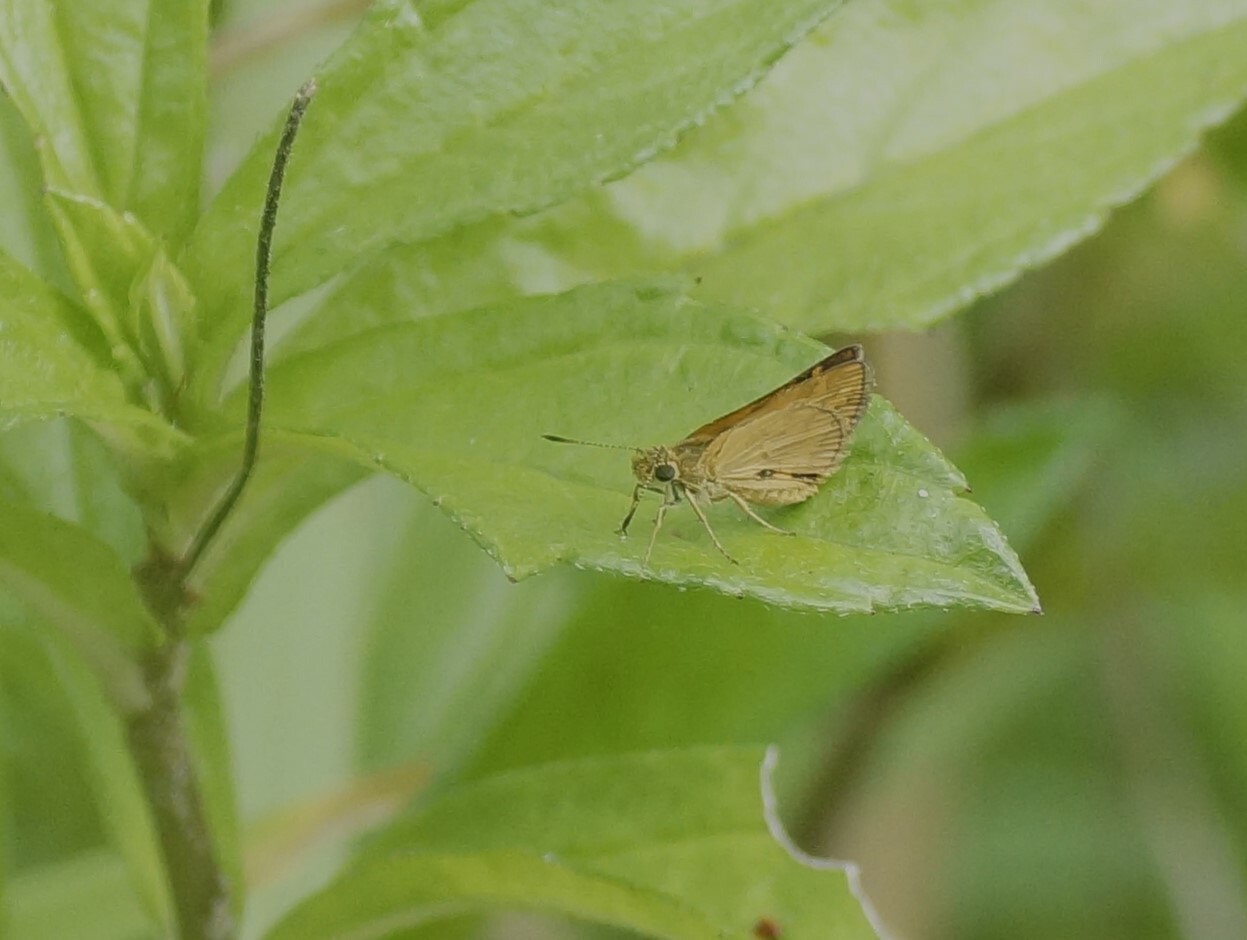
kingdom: Animalia
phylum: Arthropoda
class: Insecta
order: Lepidoptera
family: Hesperiidae
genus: Suniana
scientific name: Suniana sunias
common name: Wide-brand grass-dart
